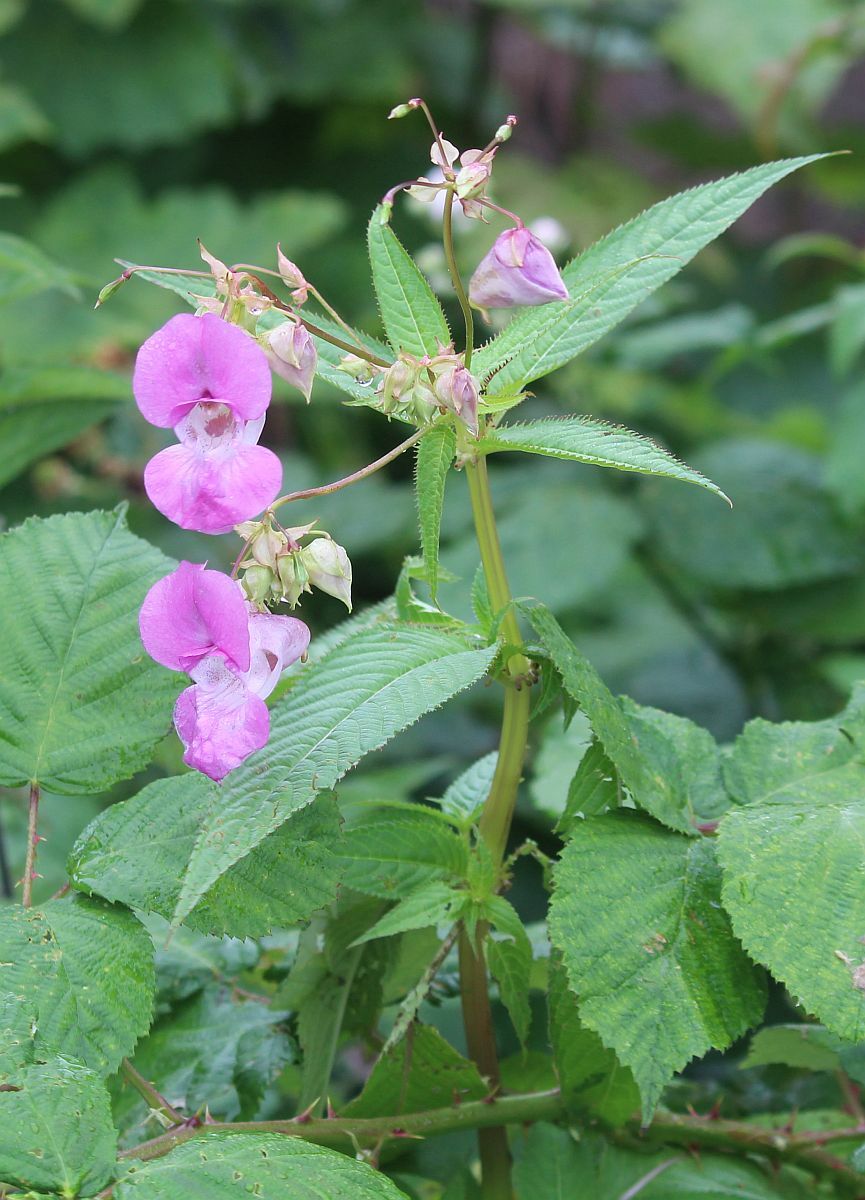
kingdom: Plantae
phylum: Tracheophyta
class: Magnoliopsida
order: Ericales
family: Balsaminaceae
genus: Impatiens
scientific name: Impatiens glandulifera
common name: Himalayan balsam
